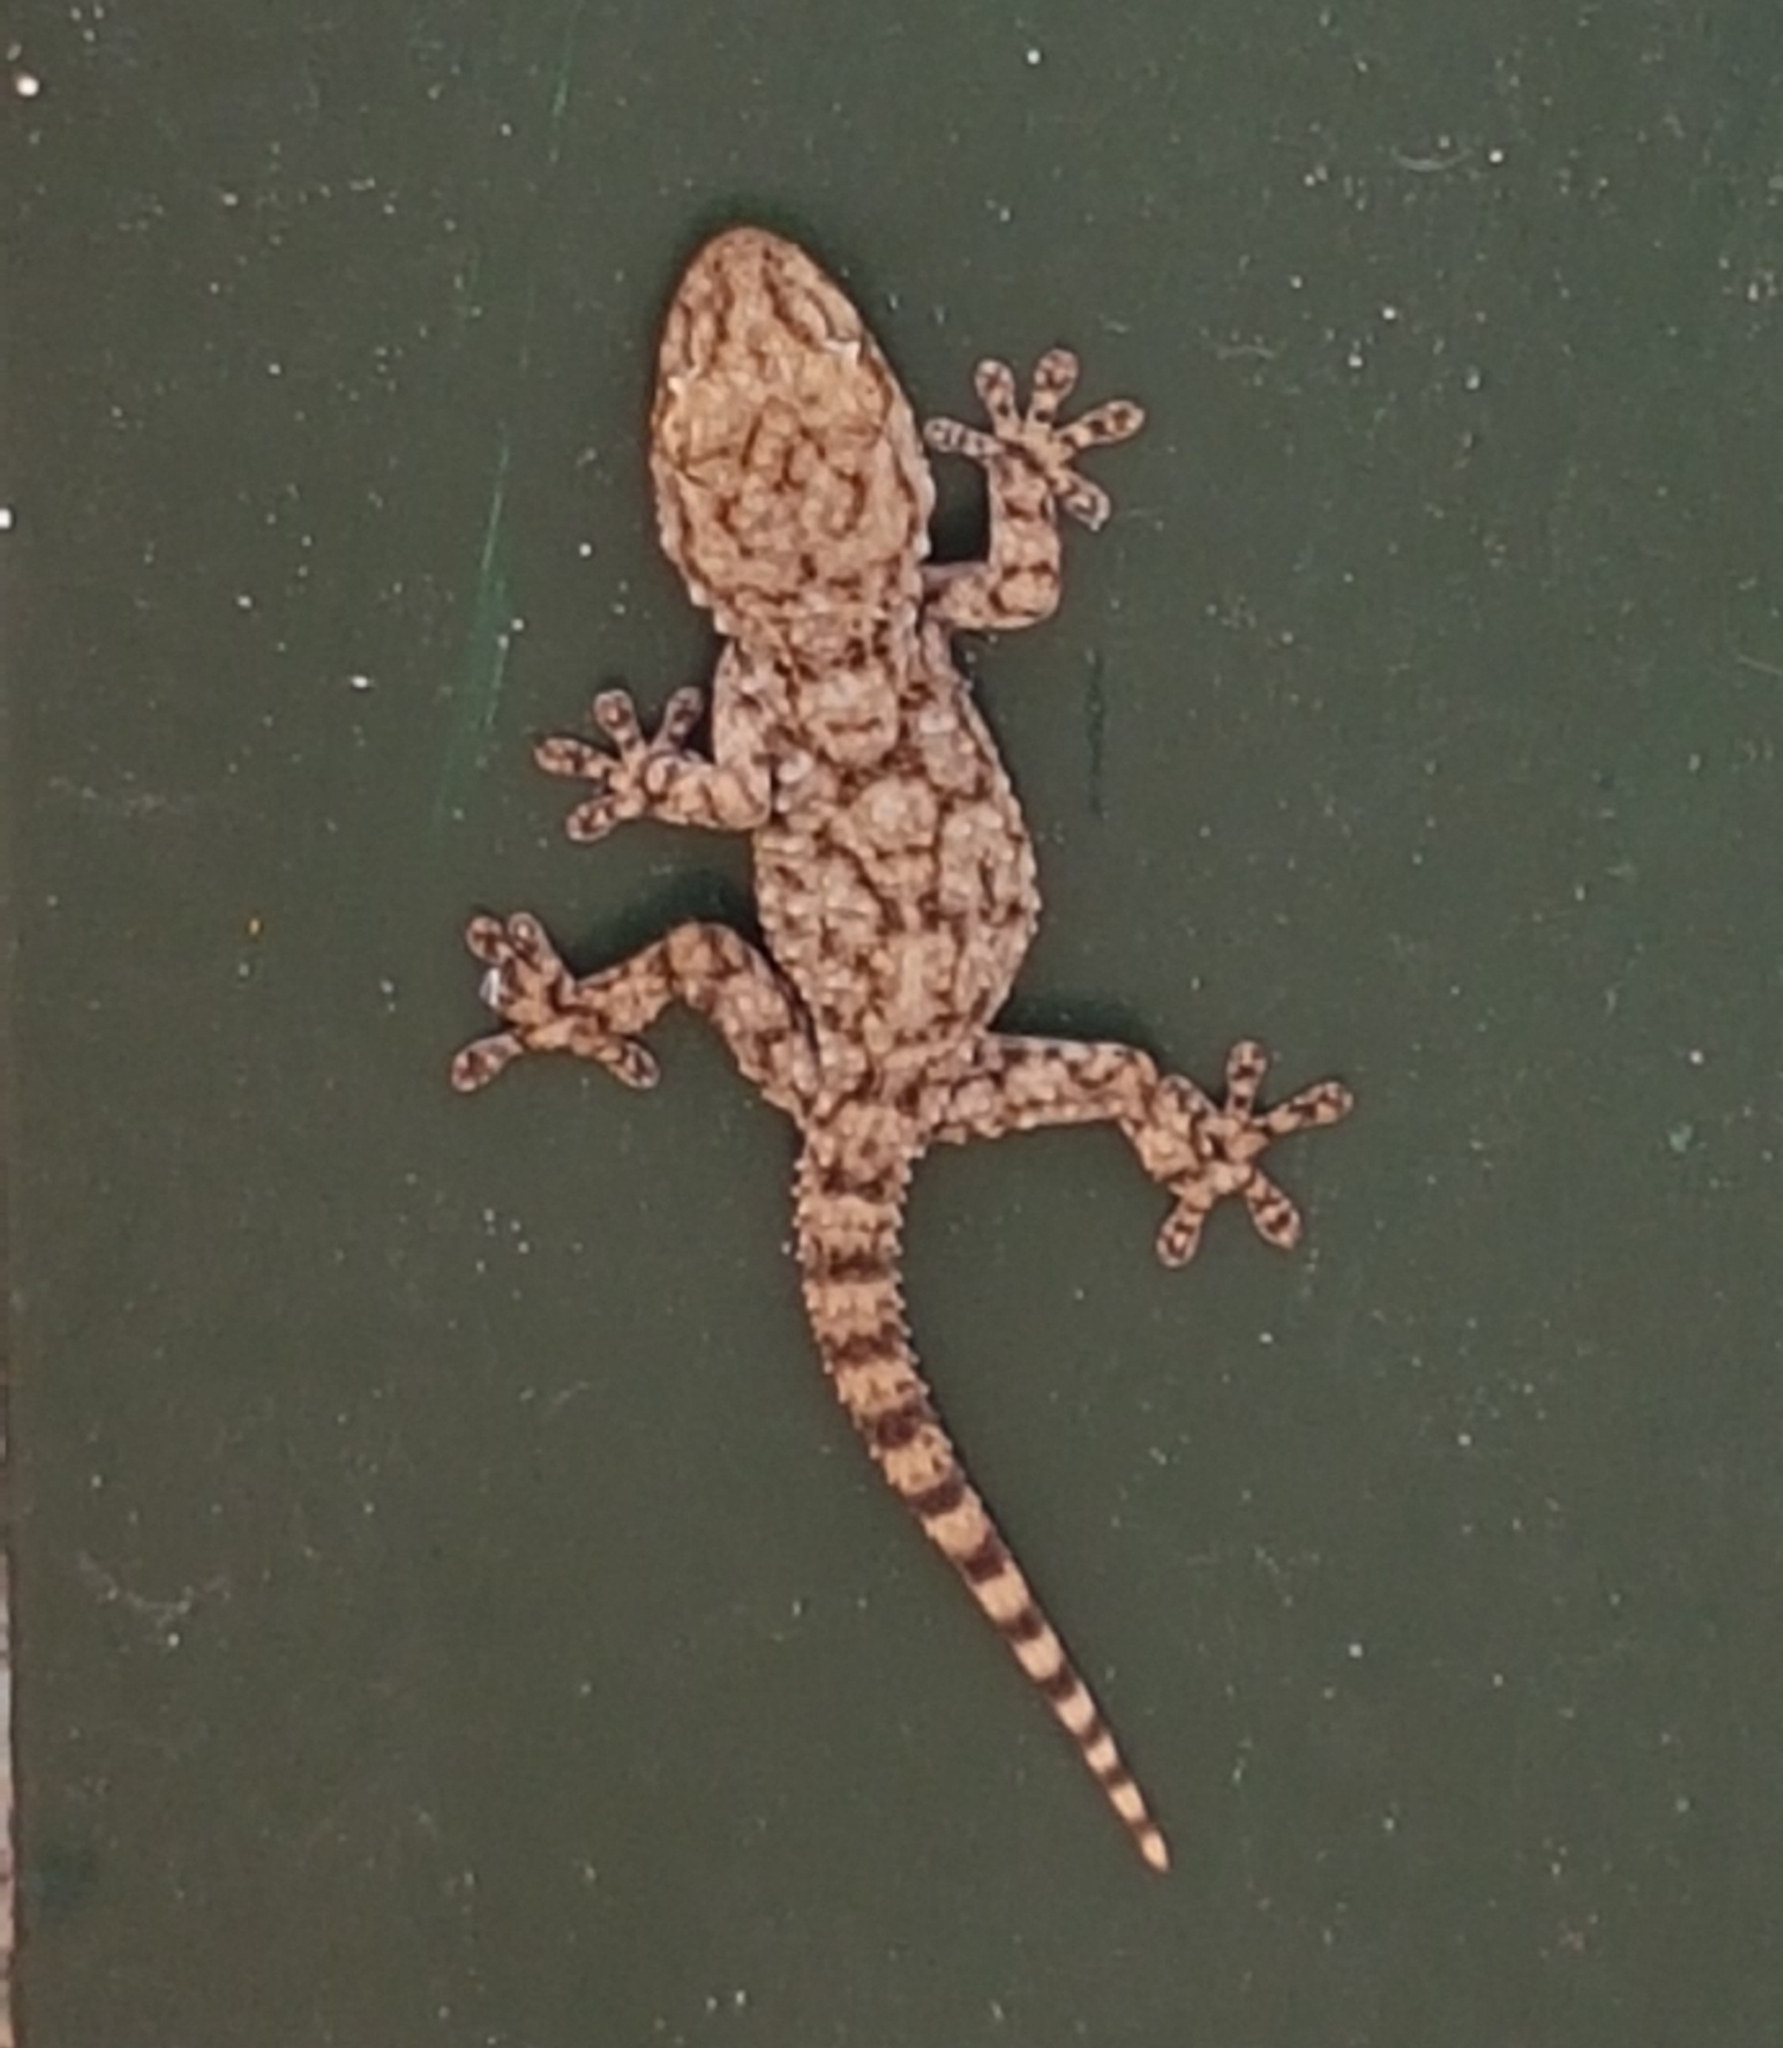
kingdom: Animalia
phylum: Chordata
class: Squamata
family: Phyllodactylidae
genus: Tarentola
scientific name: Tarentola mauritanica
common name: Moorish gecko
